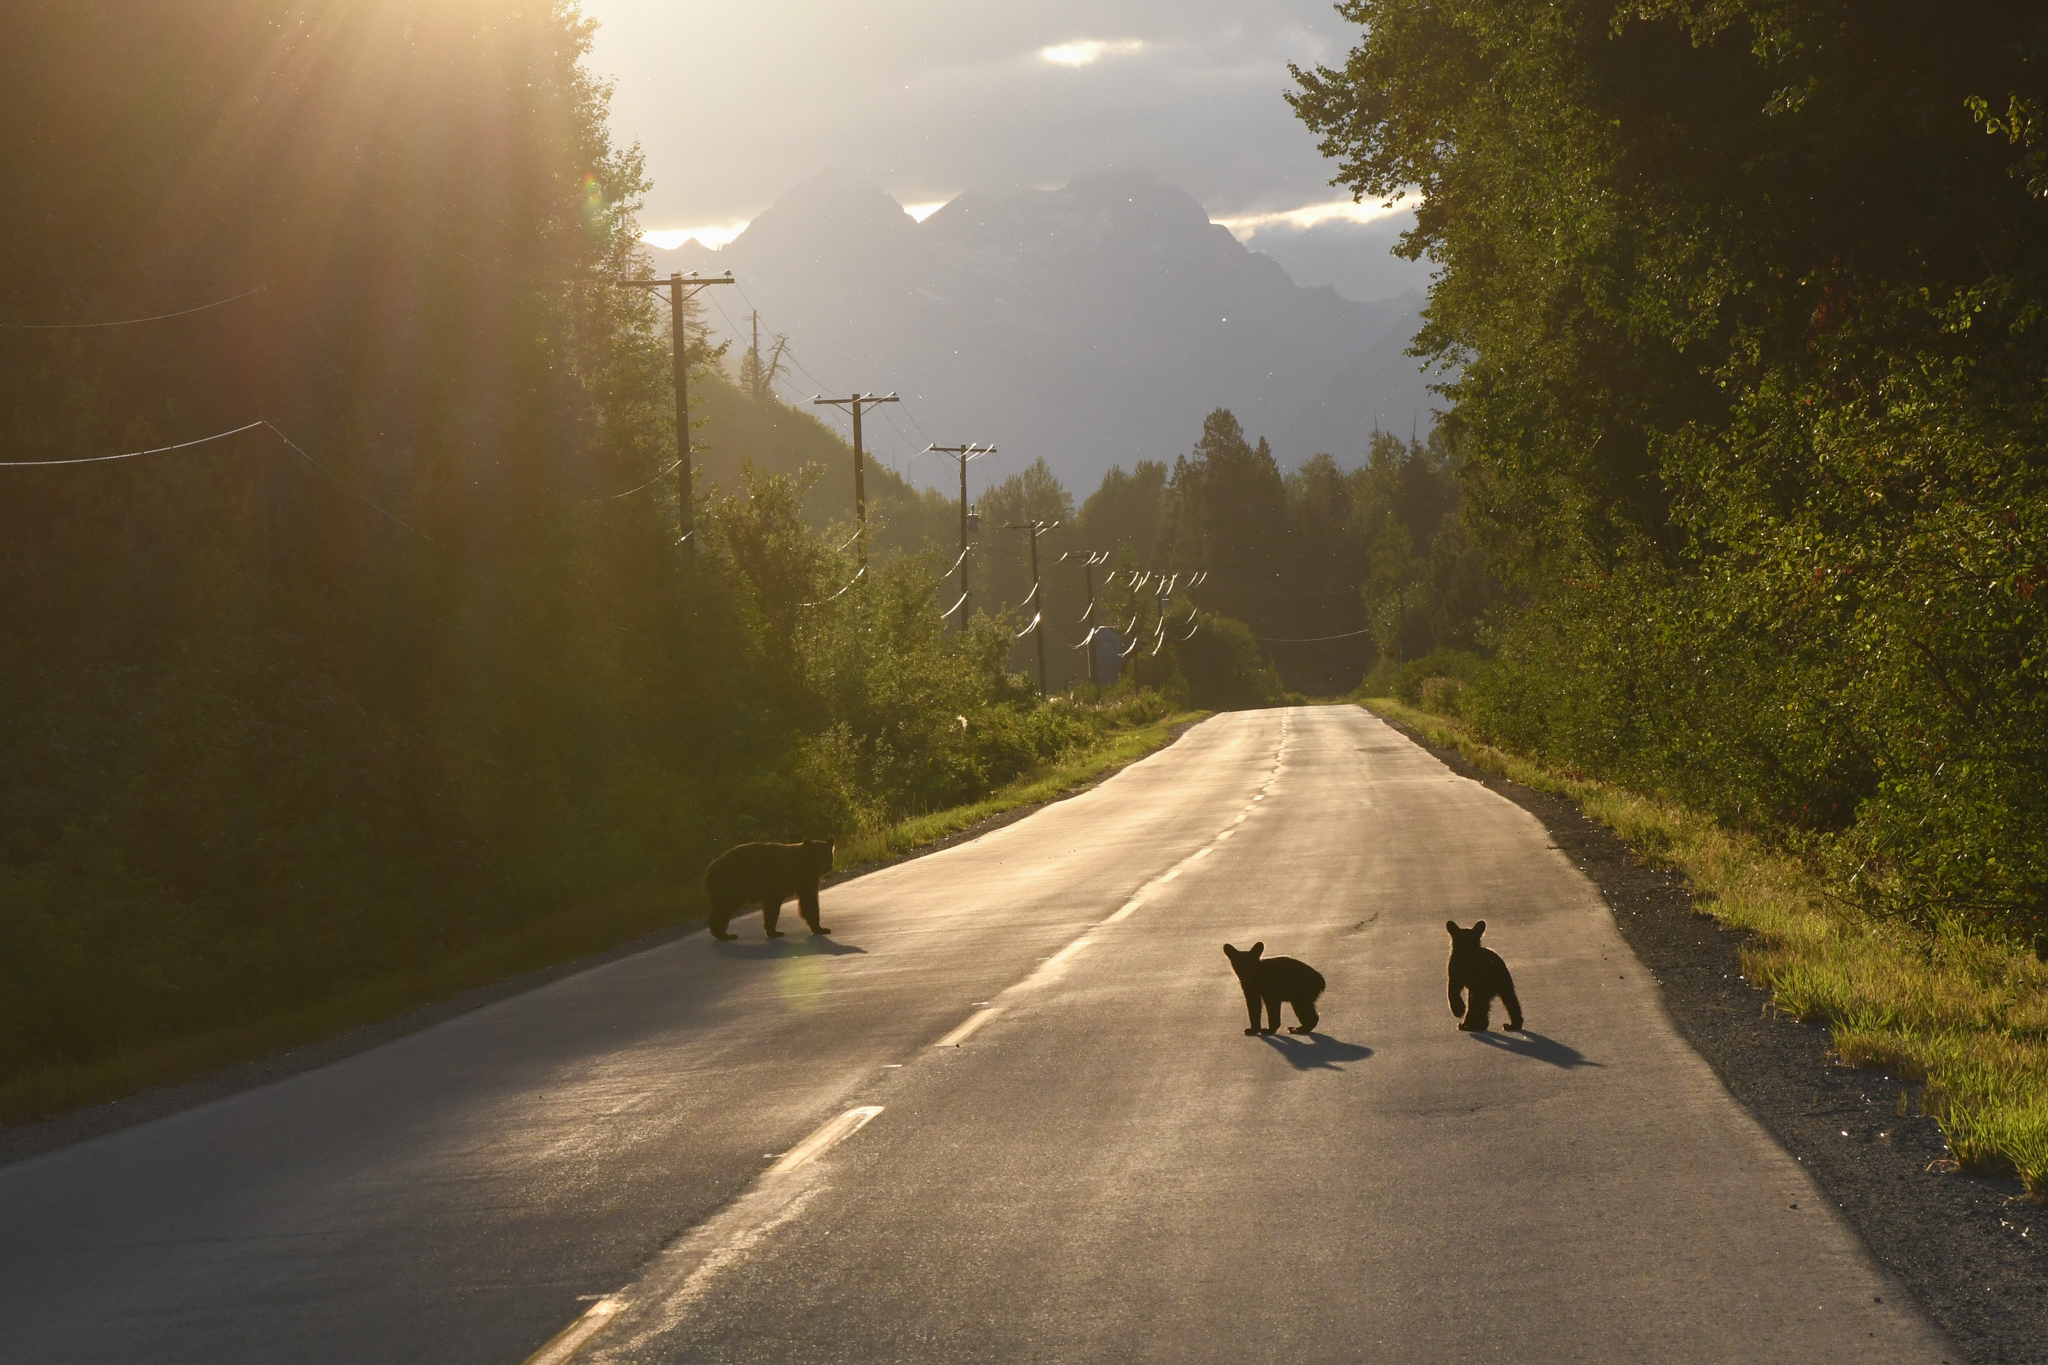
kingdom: Animalia
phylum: Chordata
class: Mammalia
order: Carnivora
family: Ursidae
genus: Ursus
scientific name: Ursus americanus
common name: American black bear
